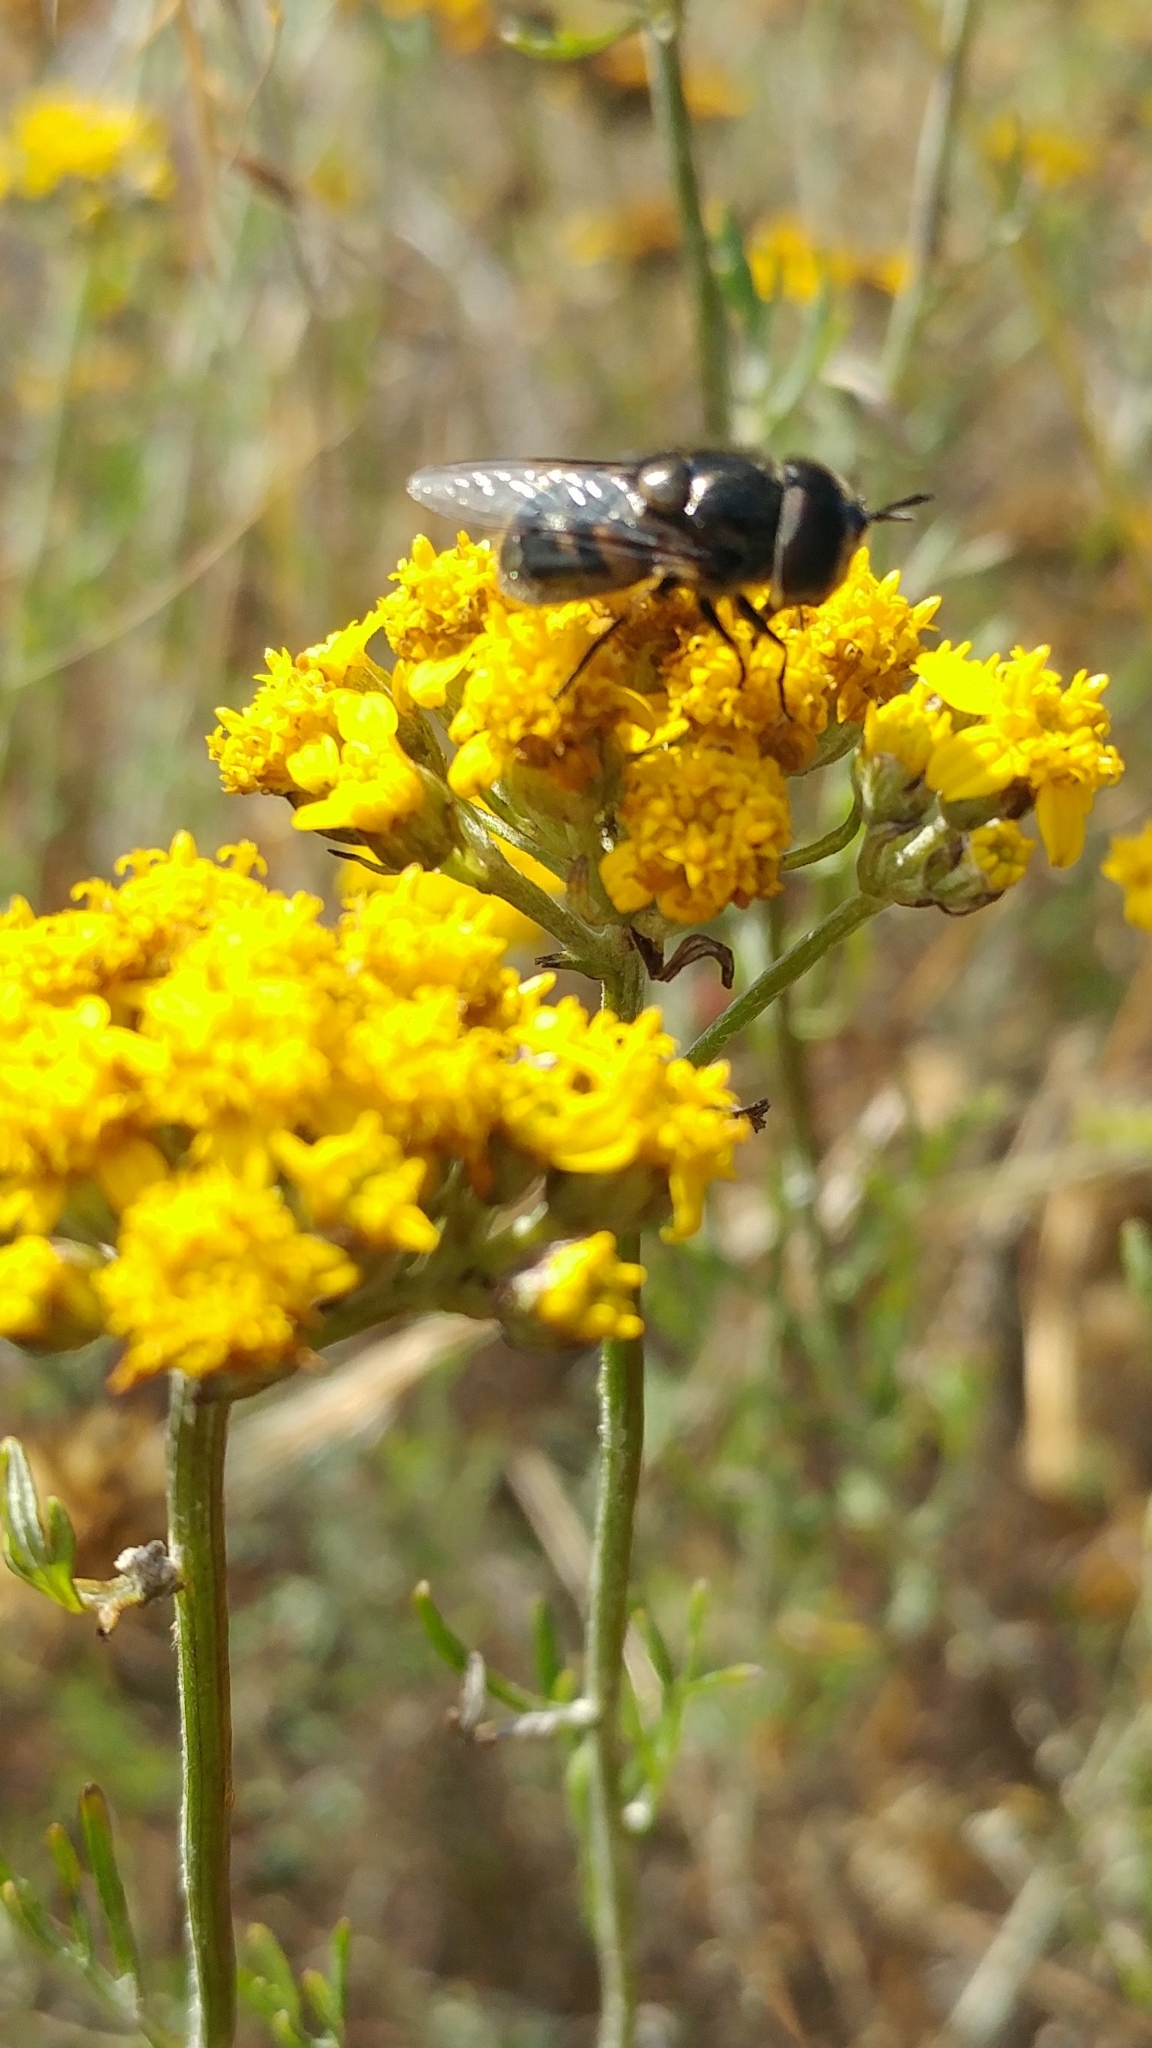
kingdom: Animalia
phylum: Arthropoda
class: Insecta
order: Diptera
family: Syrphidae
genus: Copestylum
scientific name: Copestylum lentum
